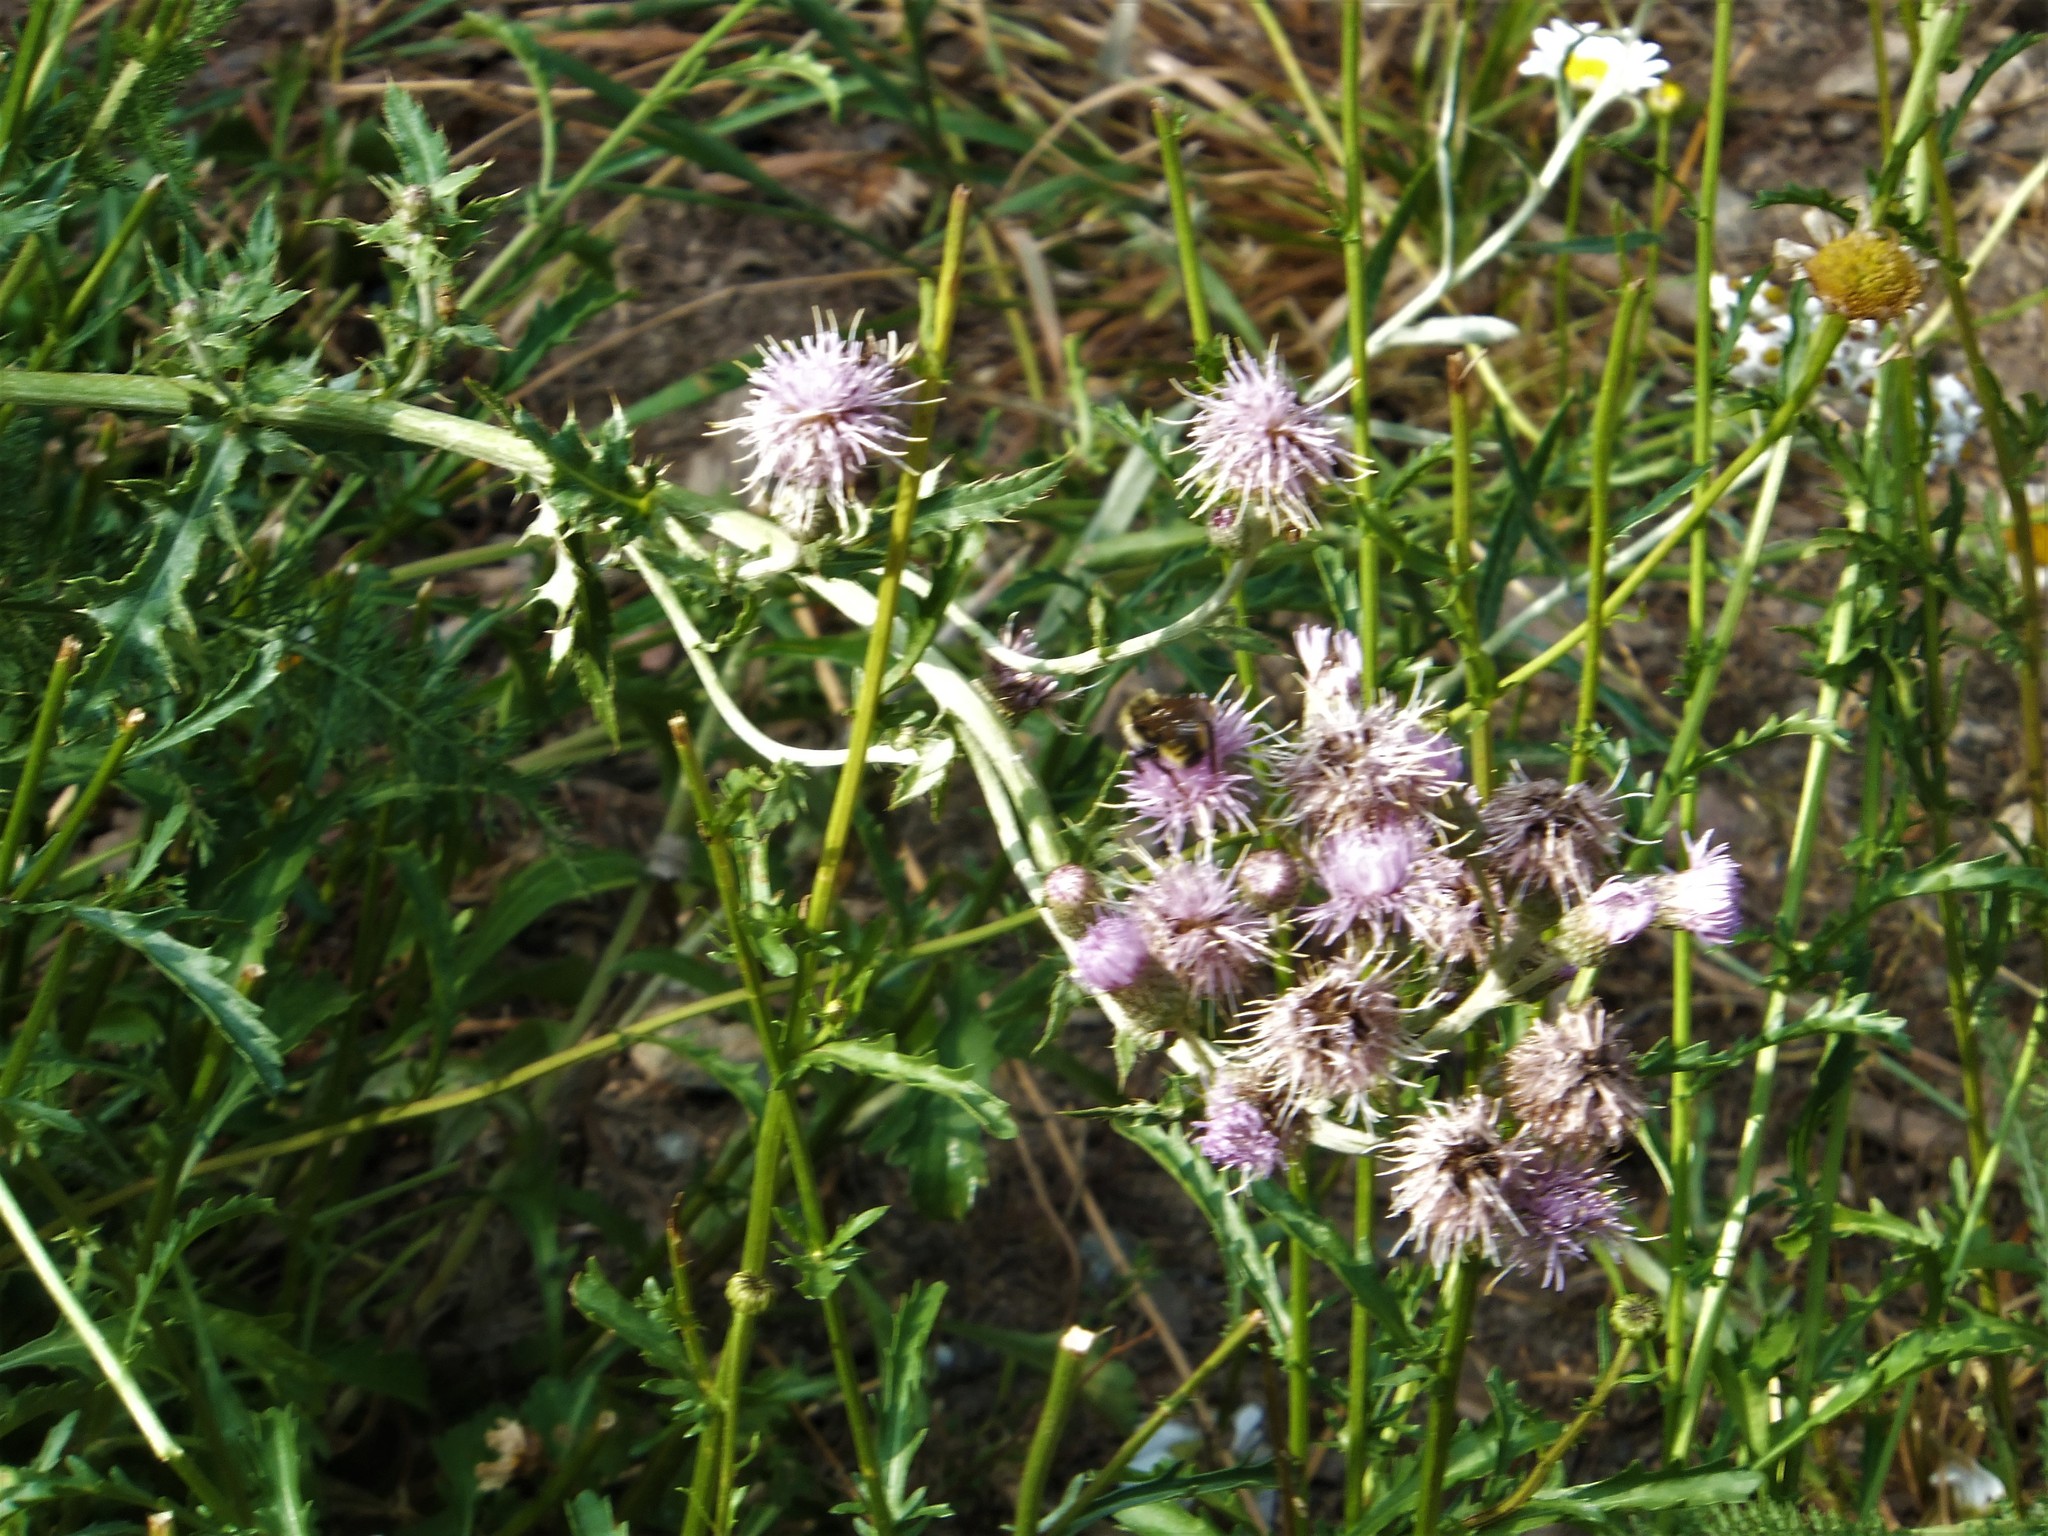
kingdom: Plantae
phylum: Tracheophyta
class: Magnoliopsida
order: Asterales
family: Asteraceae
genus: Cirsium
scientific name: Cirsium arvense
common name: Creeping thistle
